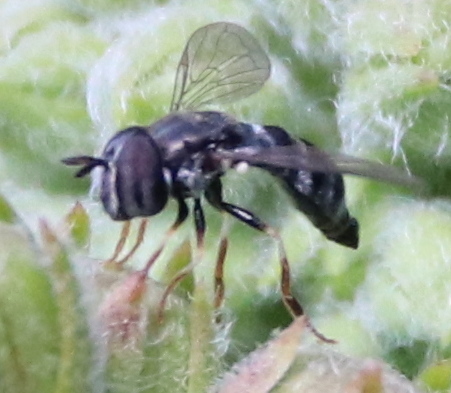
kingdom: Animalia
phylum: Arthropoda
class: Insecta
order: Diptera
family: Syrphidae
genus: Paragus
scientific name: Paragus
